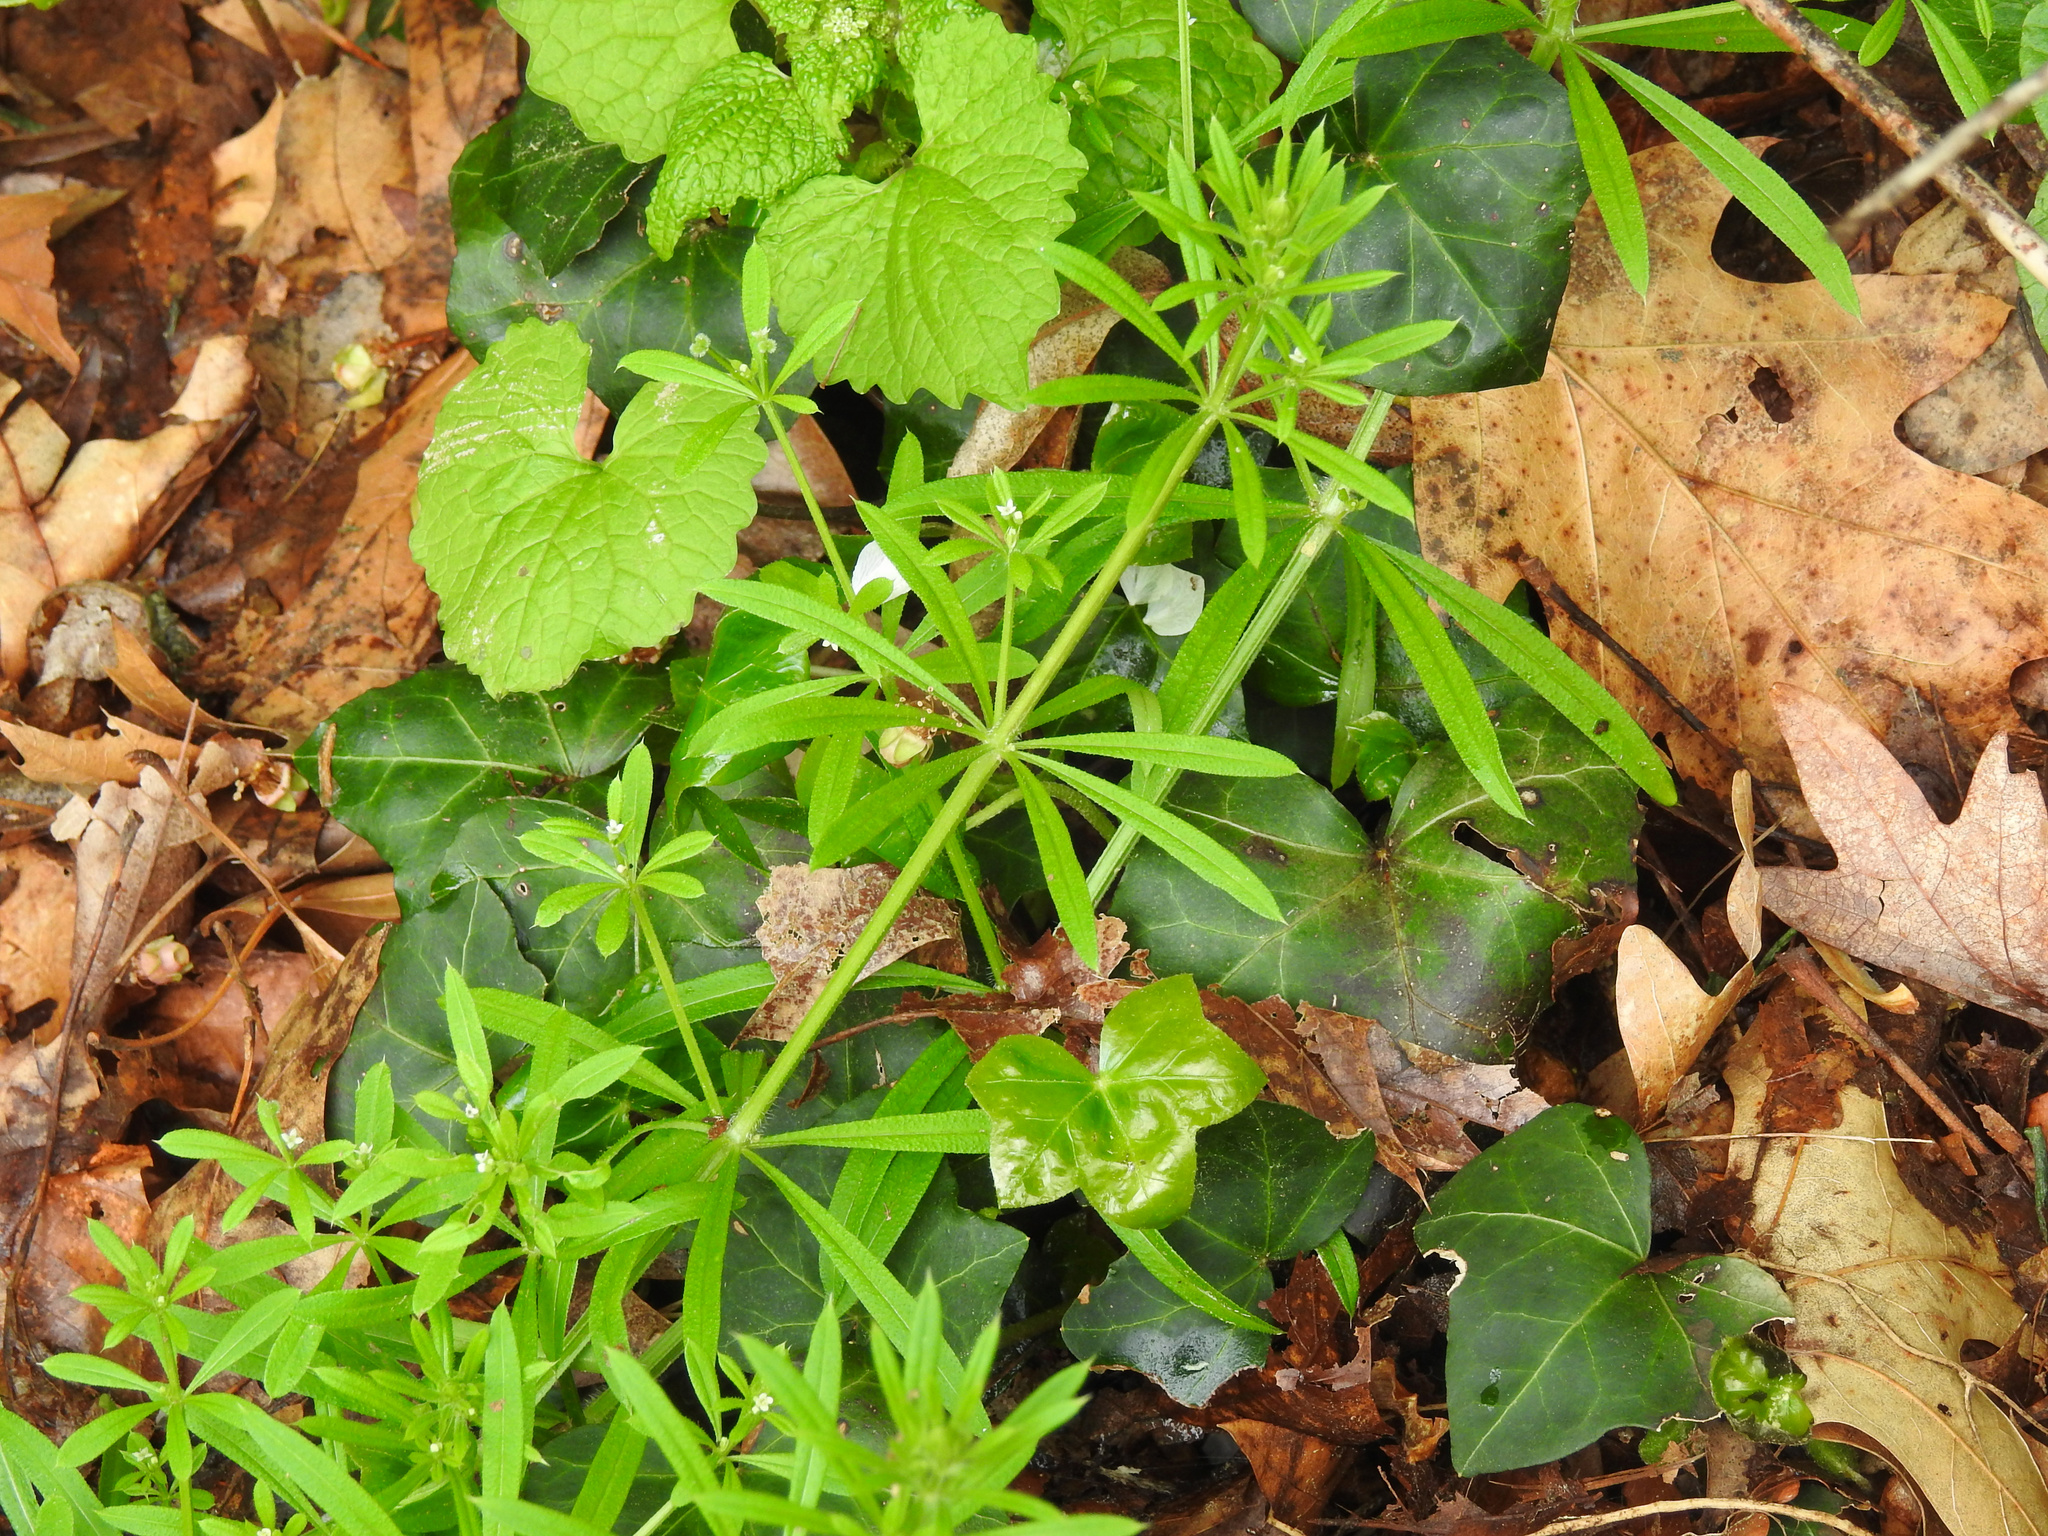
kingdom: Plantae
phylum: Tracheophyta
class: Magnoliopsida
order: Gentianales
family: Rubiaceae
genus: Galium
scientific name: Galium aparine
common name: Cleavers
